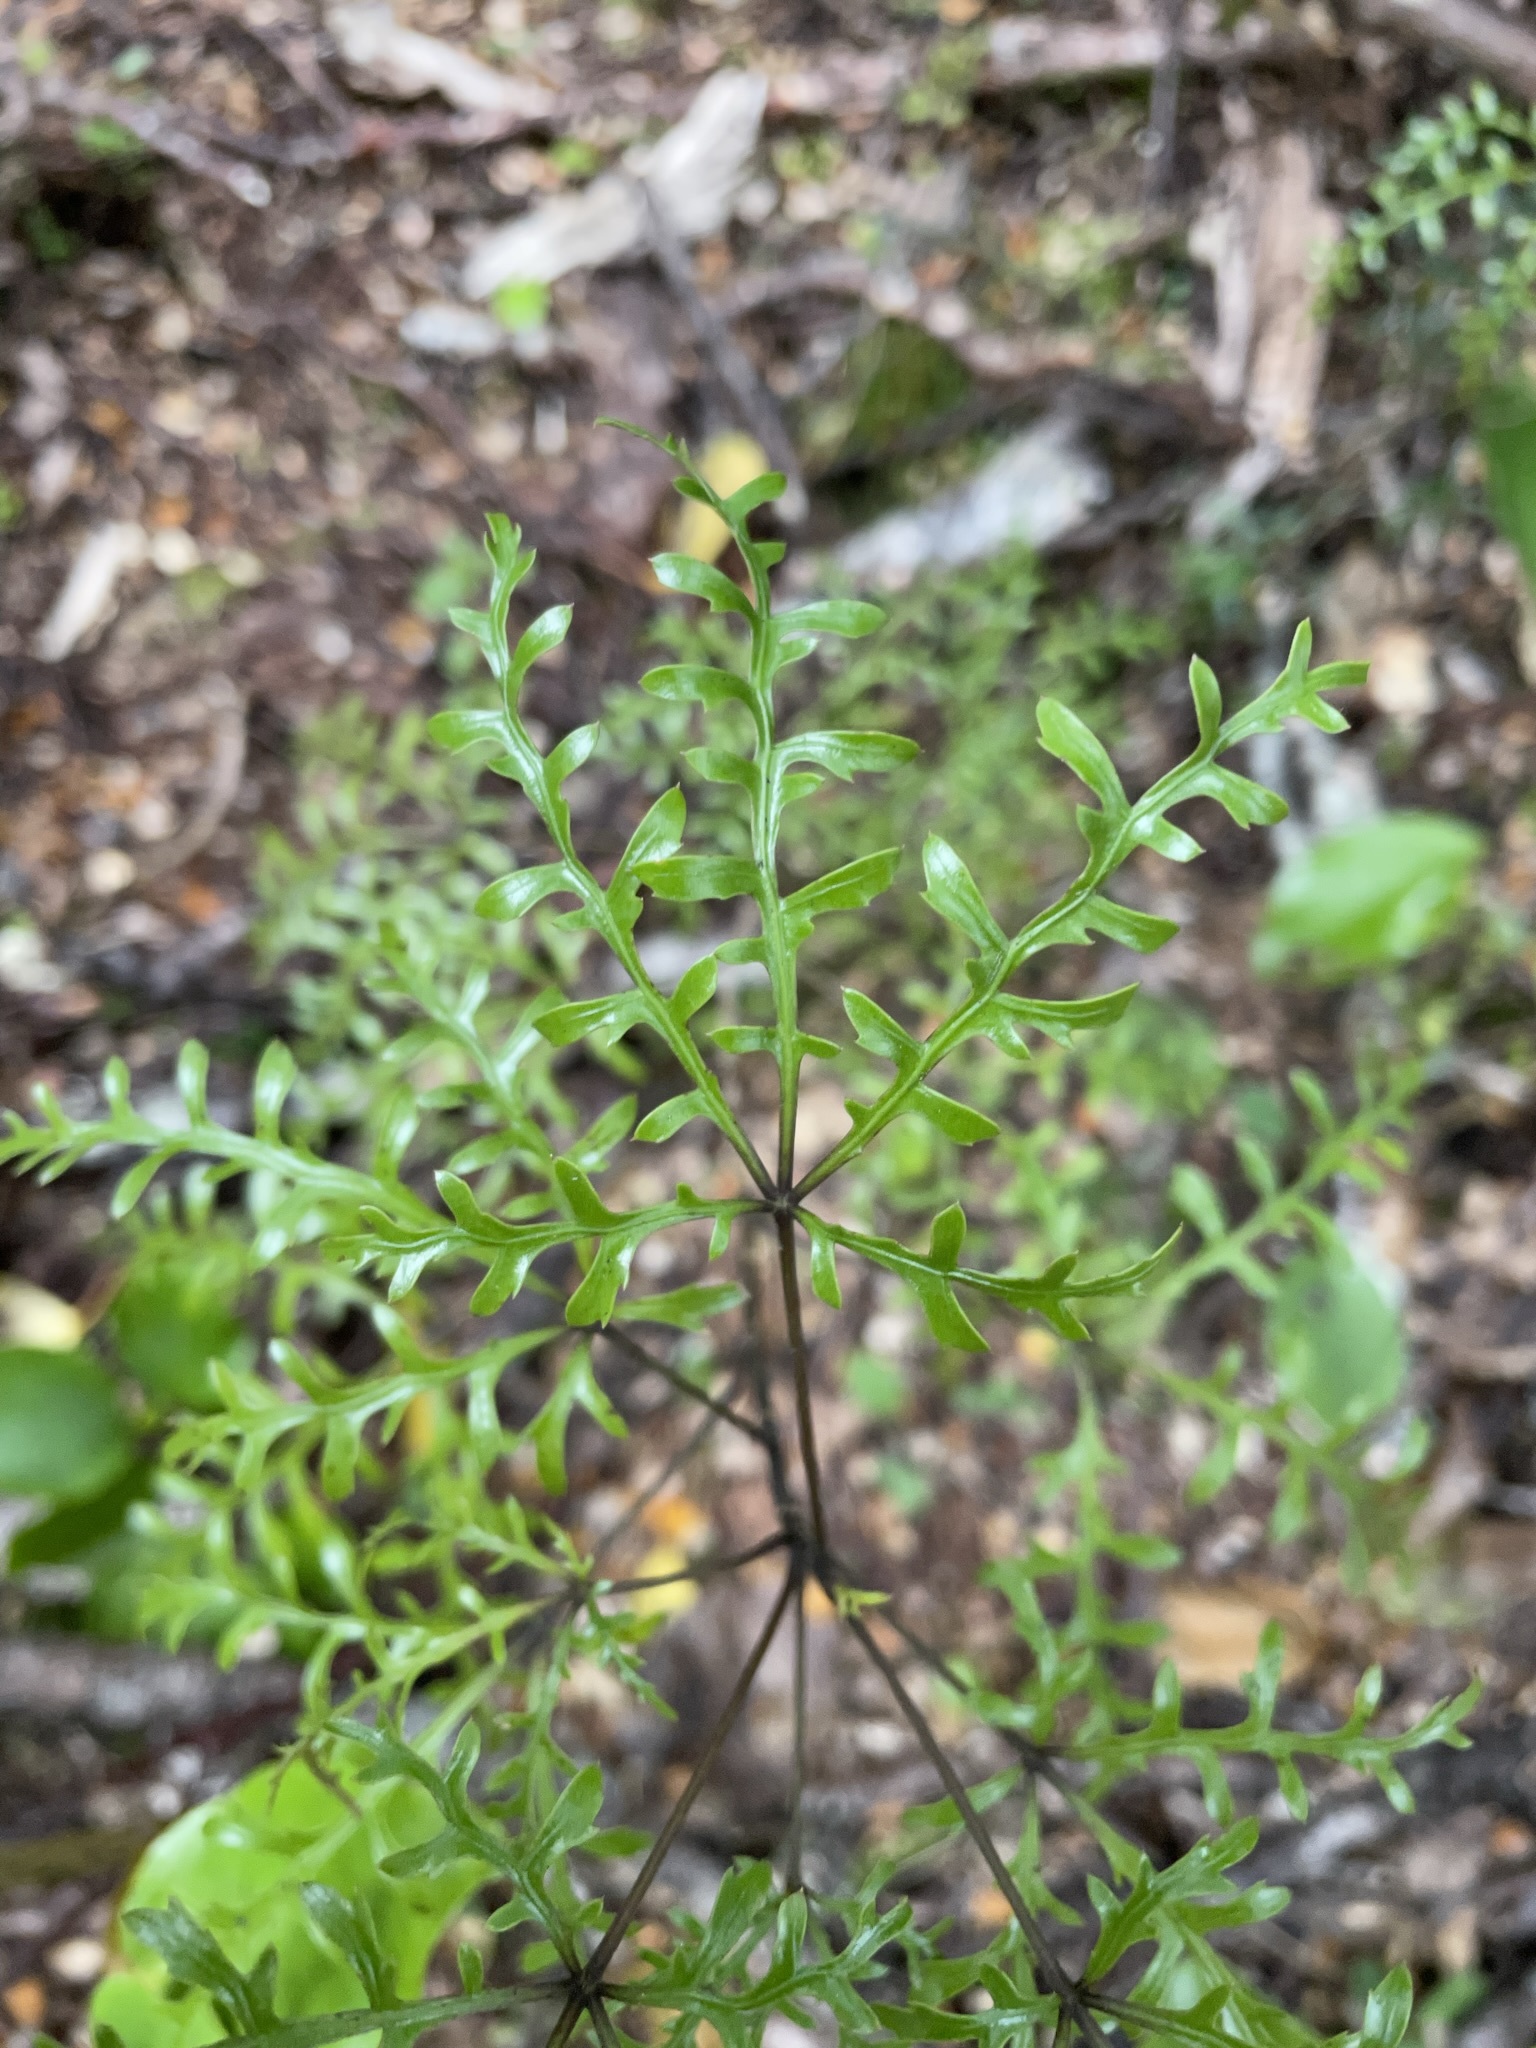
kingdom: Plantae
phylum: Tracheophyta
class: Magnoliopsida
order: Apiales
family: Araliaceae
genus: Raukaua
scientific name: Raukaua simplex
